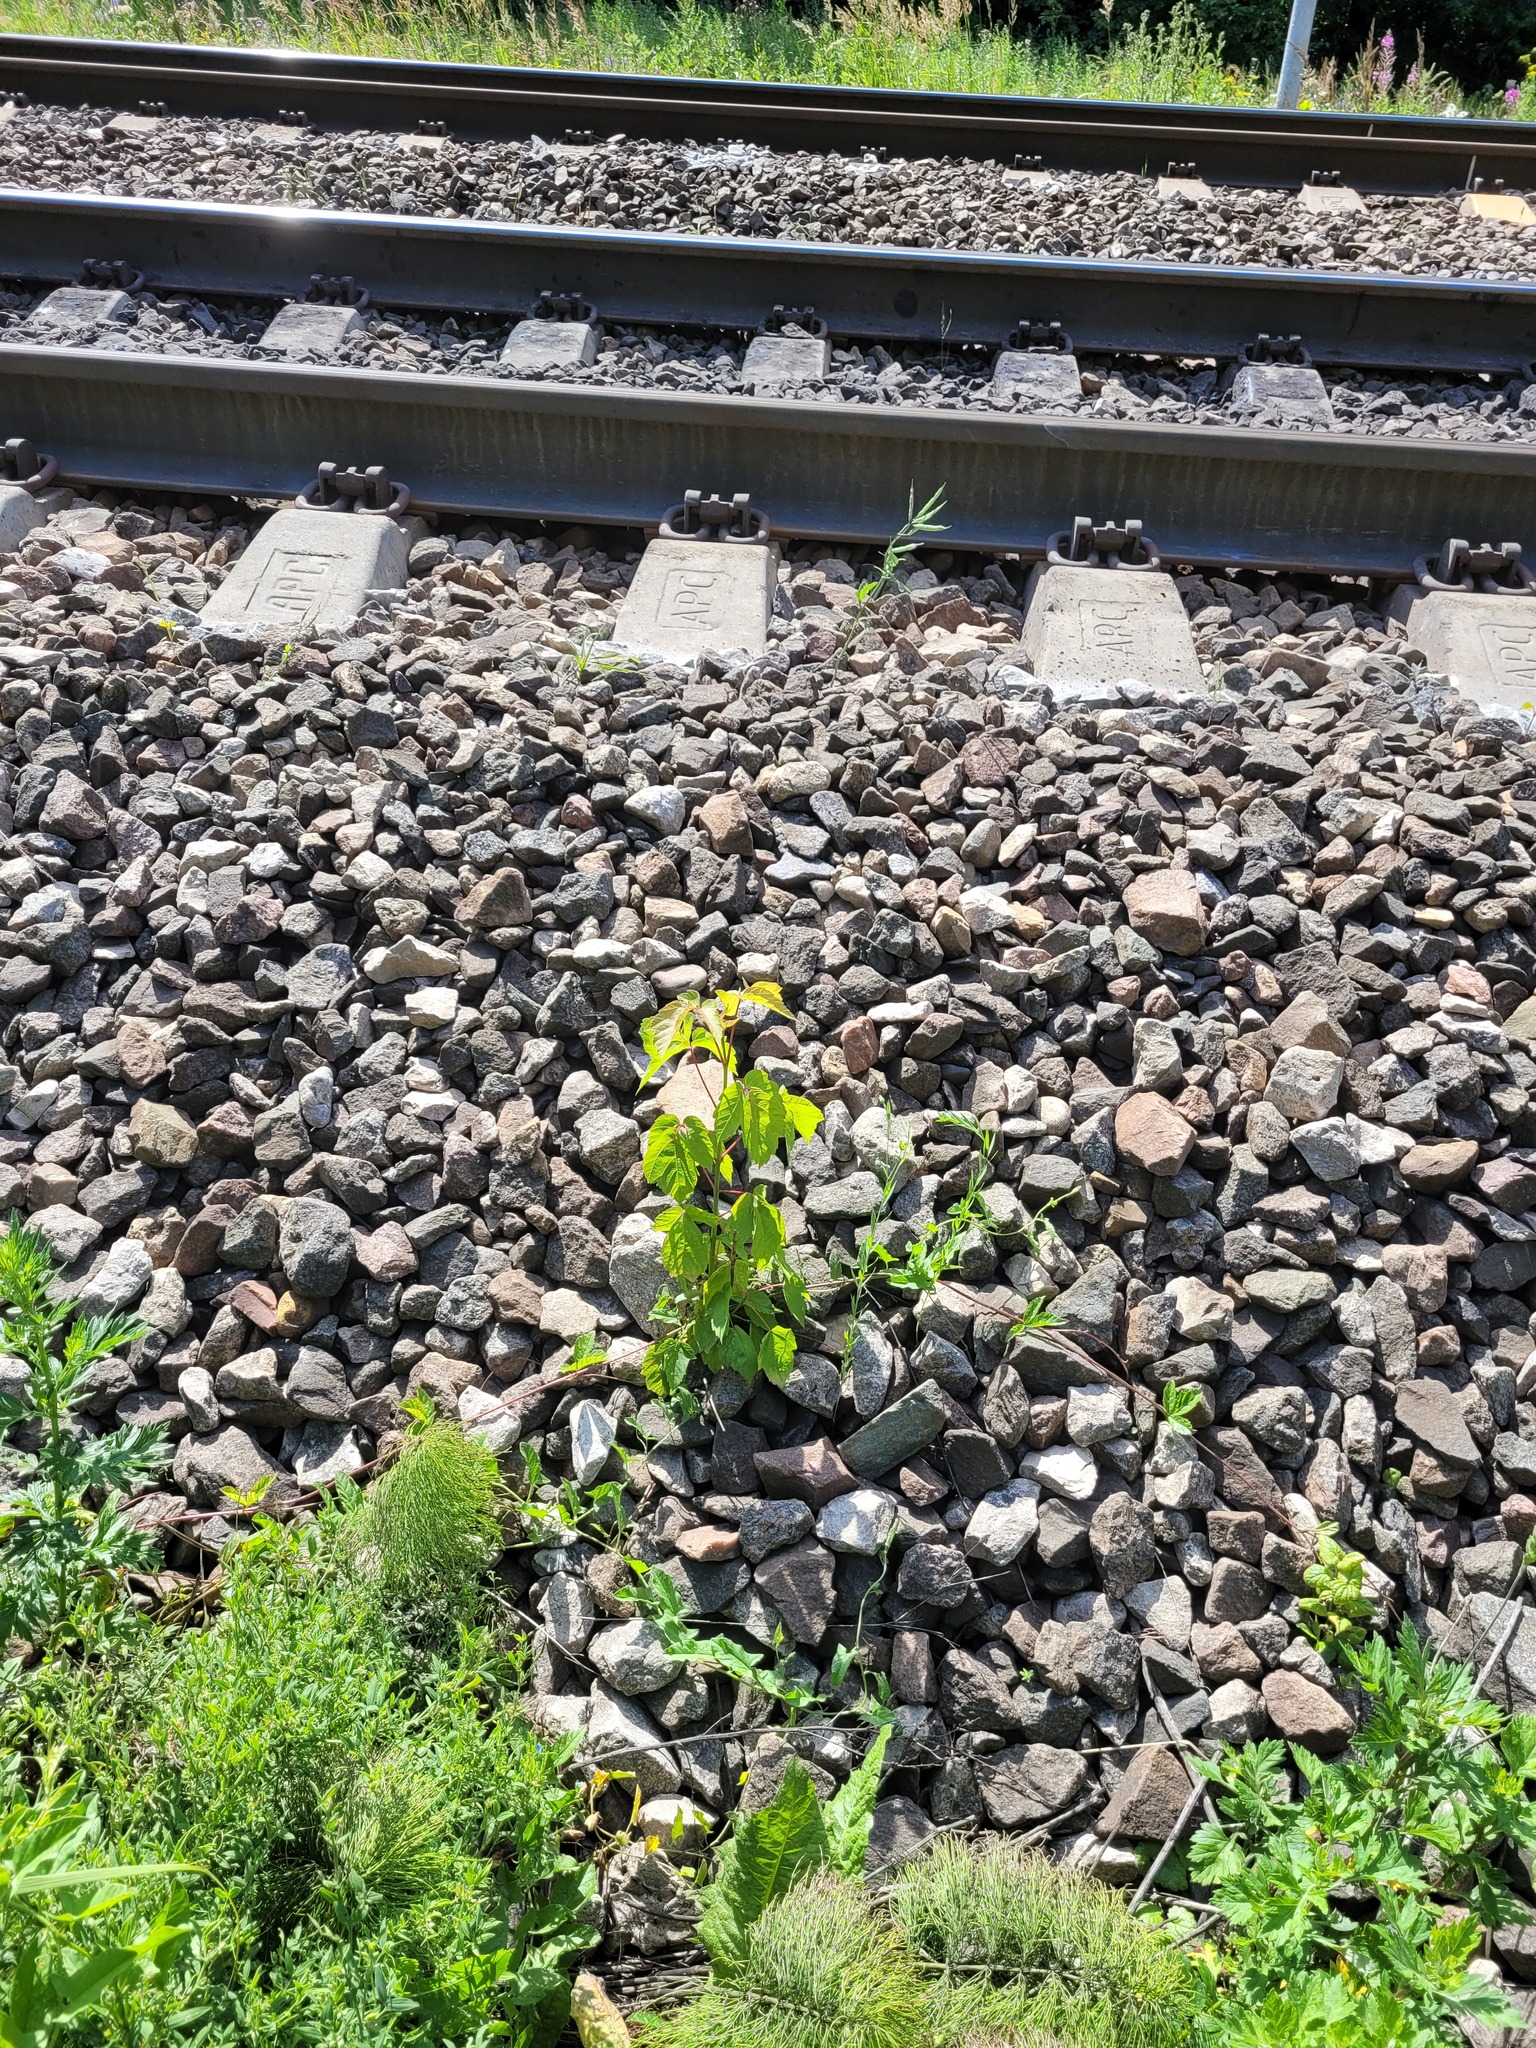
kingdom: Plantae
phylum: Tracheophyta
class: Magnoliopsida
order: Sapindales
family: Sapindaceae
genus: Acer
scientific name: Acer negundo
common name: Ashleaf maple
